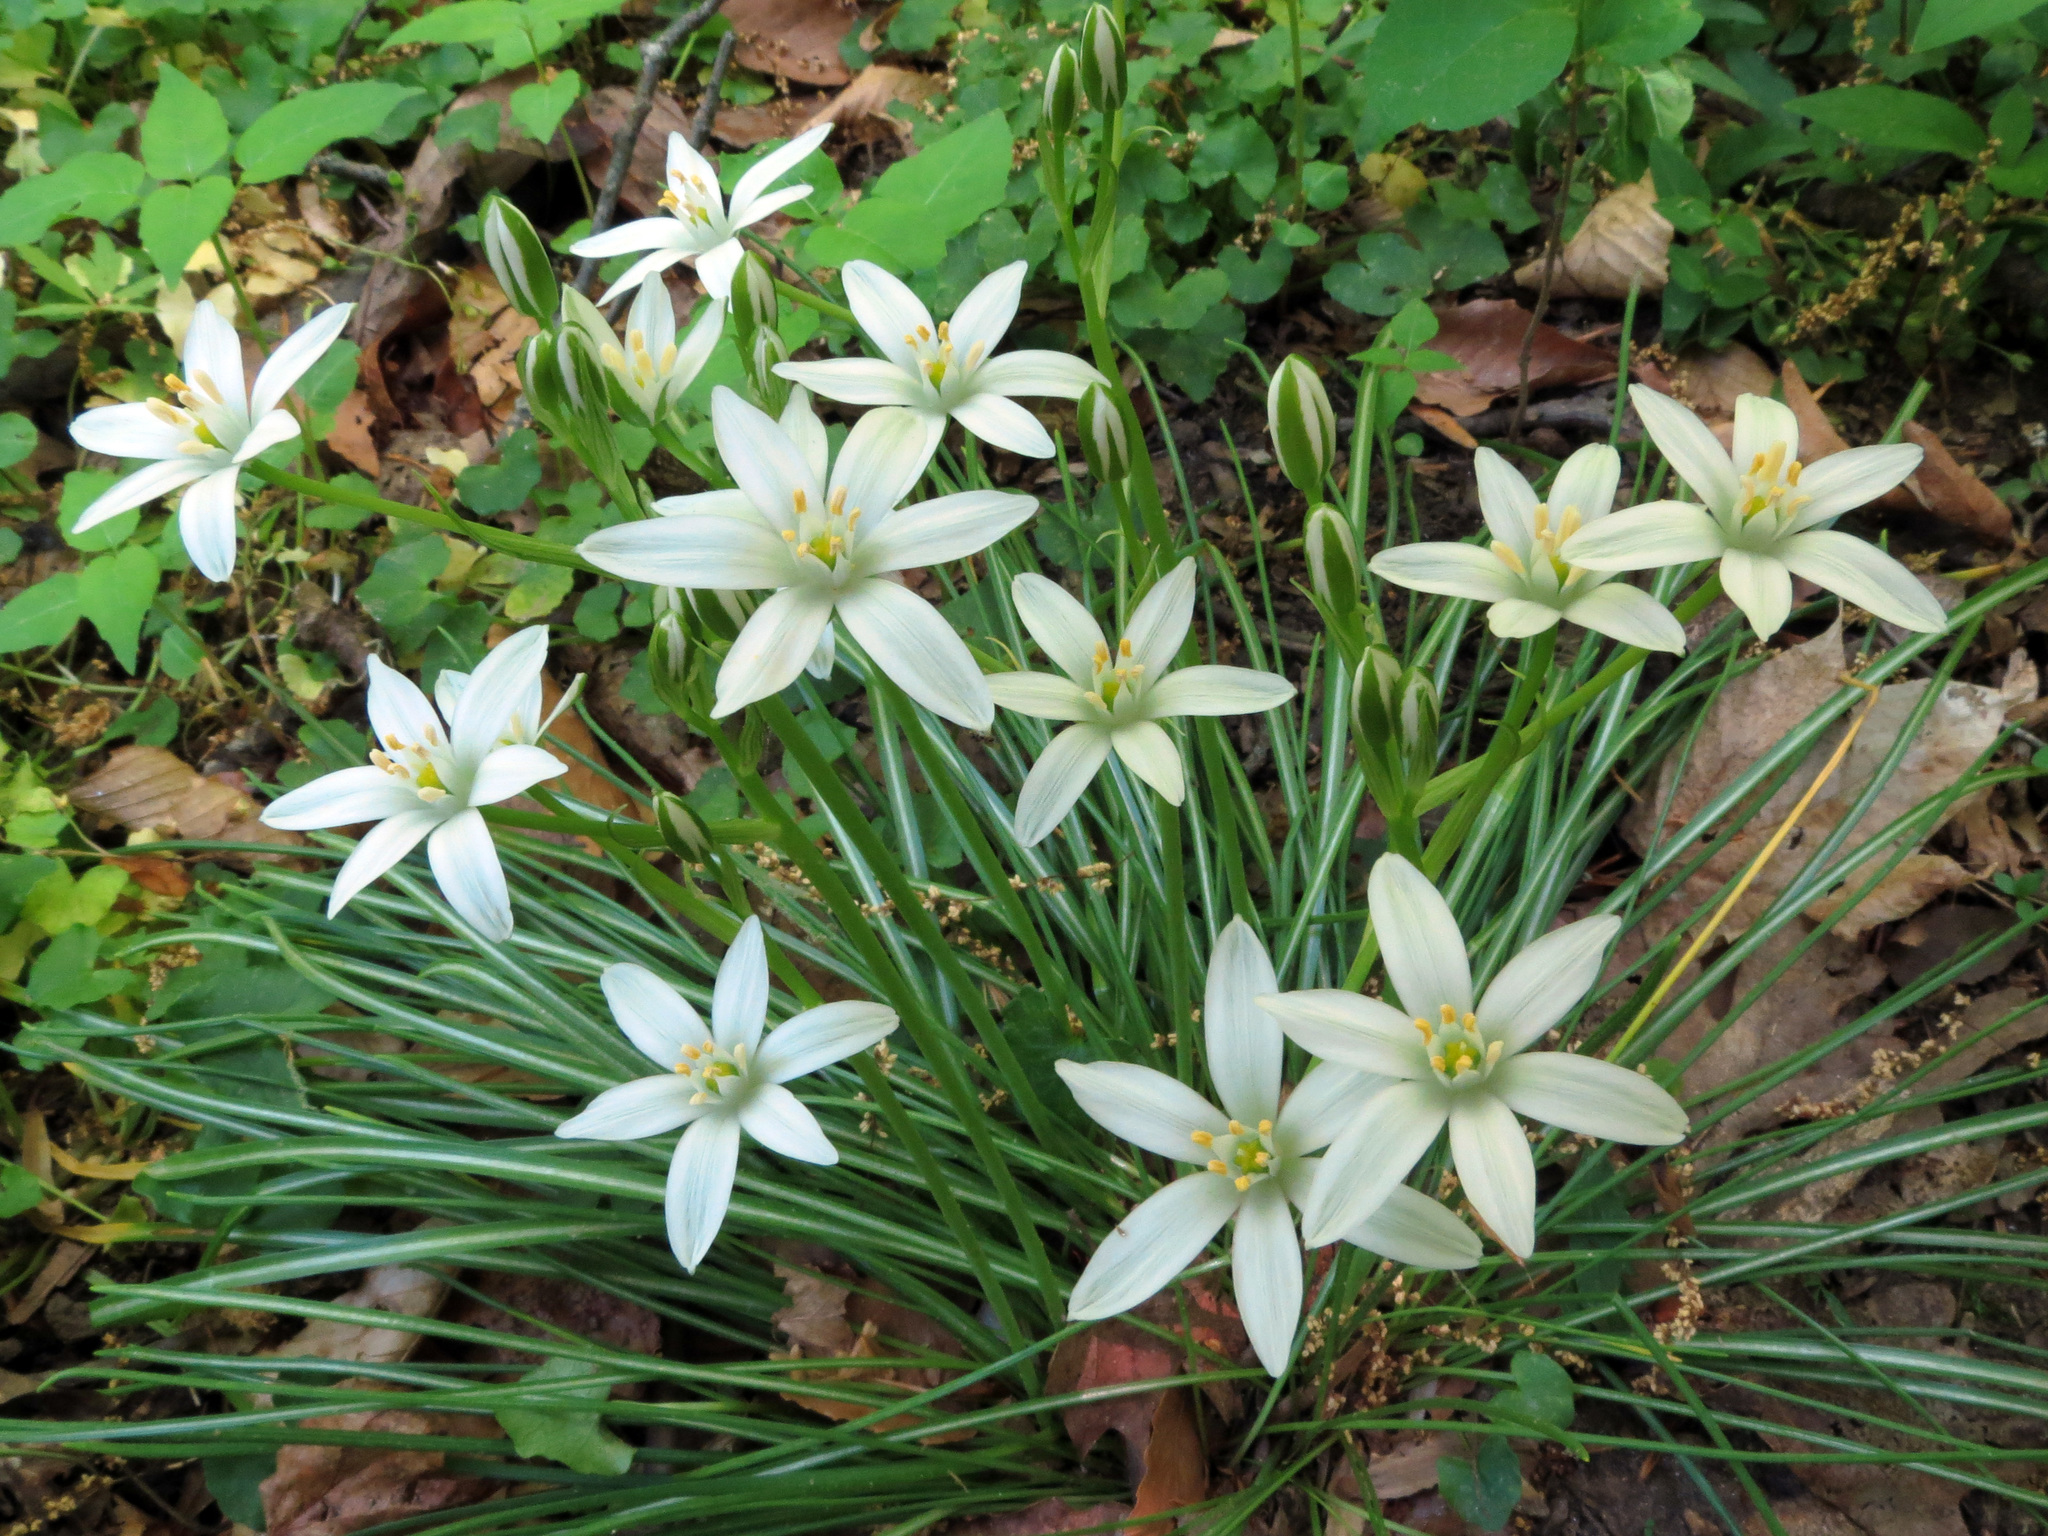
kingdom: Plantae
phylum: Tracheophyta
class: Liliopsida
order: Asparagales
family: Asparagaceae
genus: Ornithogalum
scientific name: Ornithogalum umbellatum
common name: Garden star-of-bethlehem
